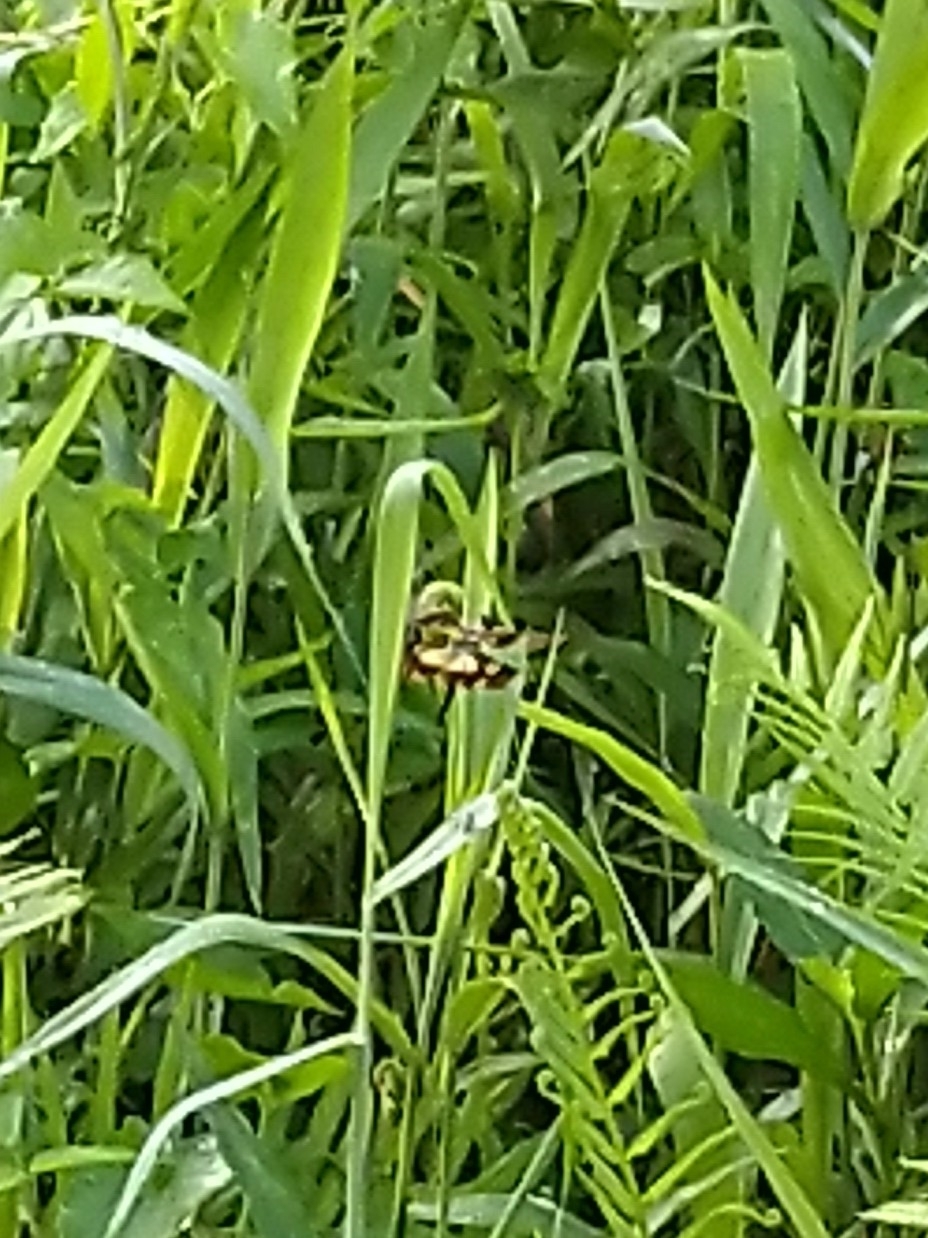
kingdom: Animalia
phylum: Arthropoda
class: Insecta
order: Odonata
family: Libellulidae
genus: Rhyothemis
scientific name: Rhyothemis variegata
